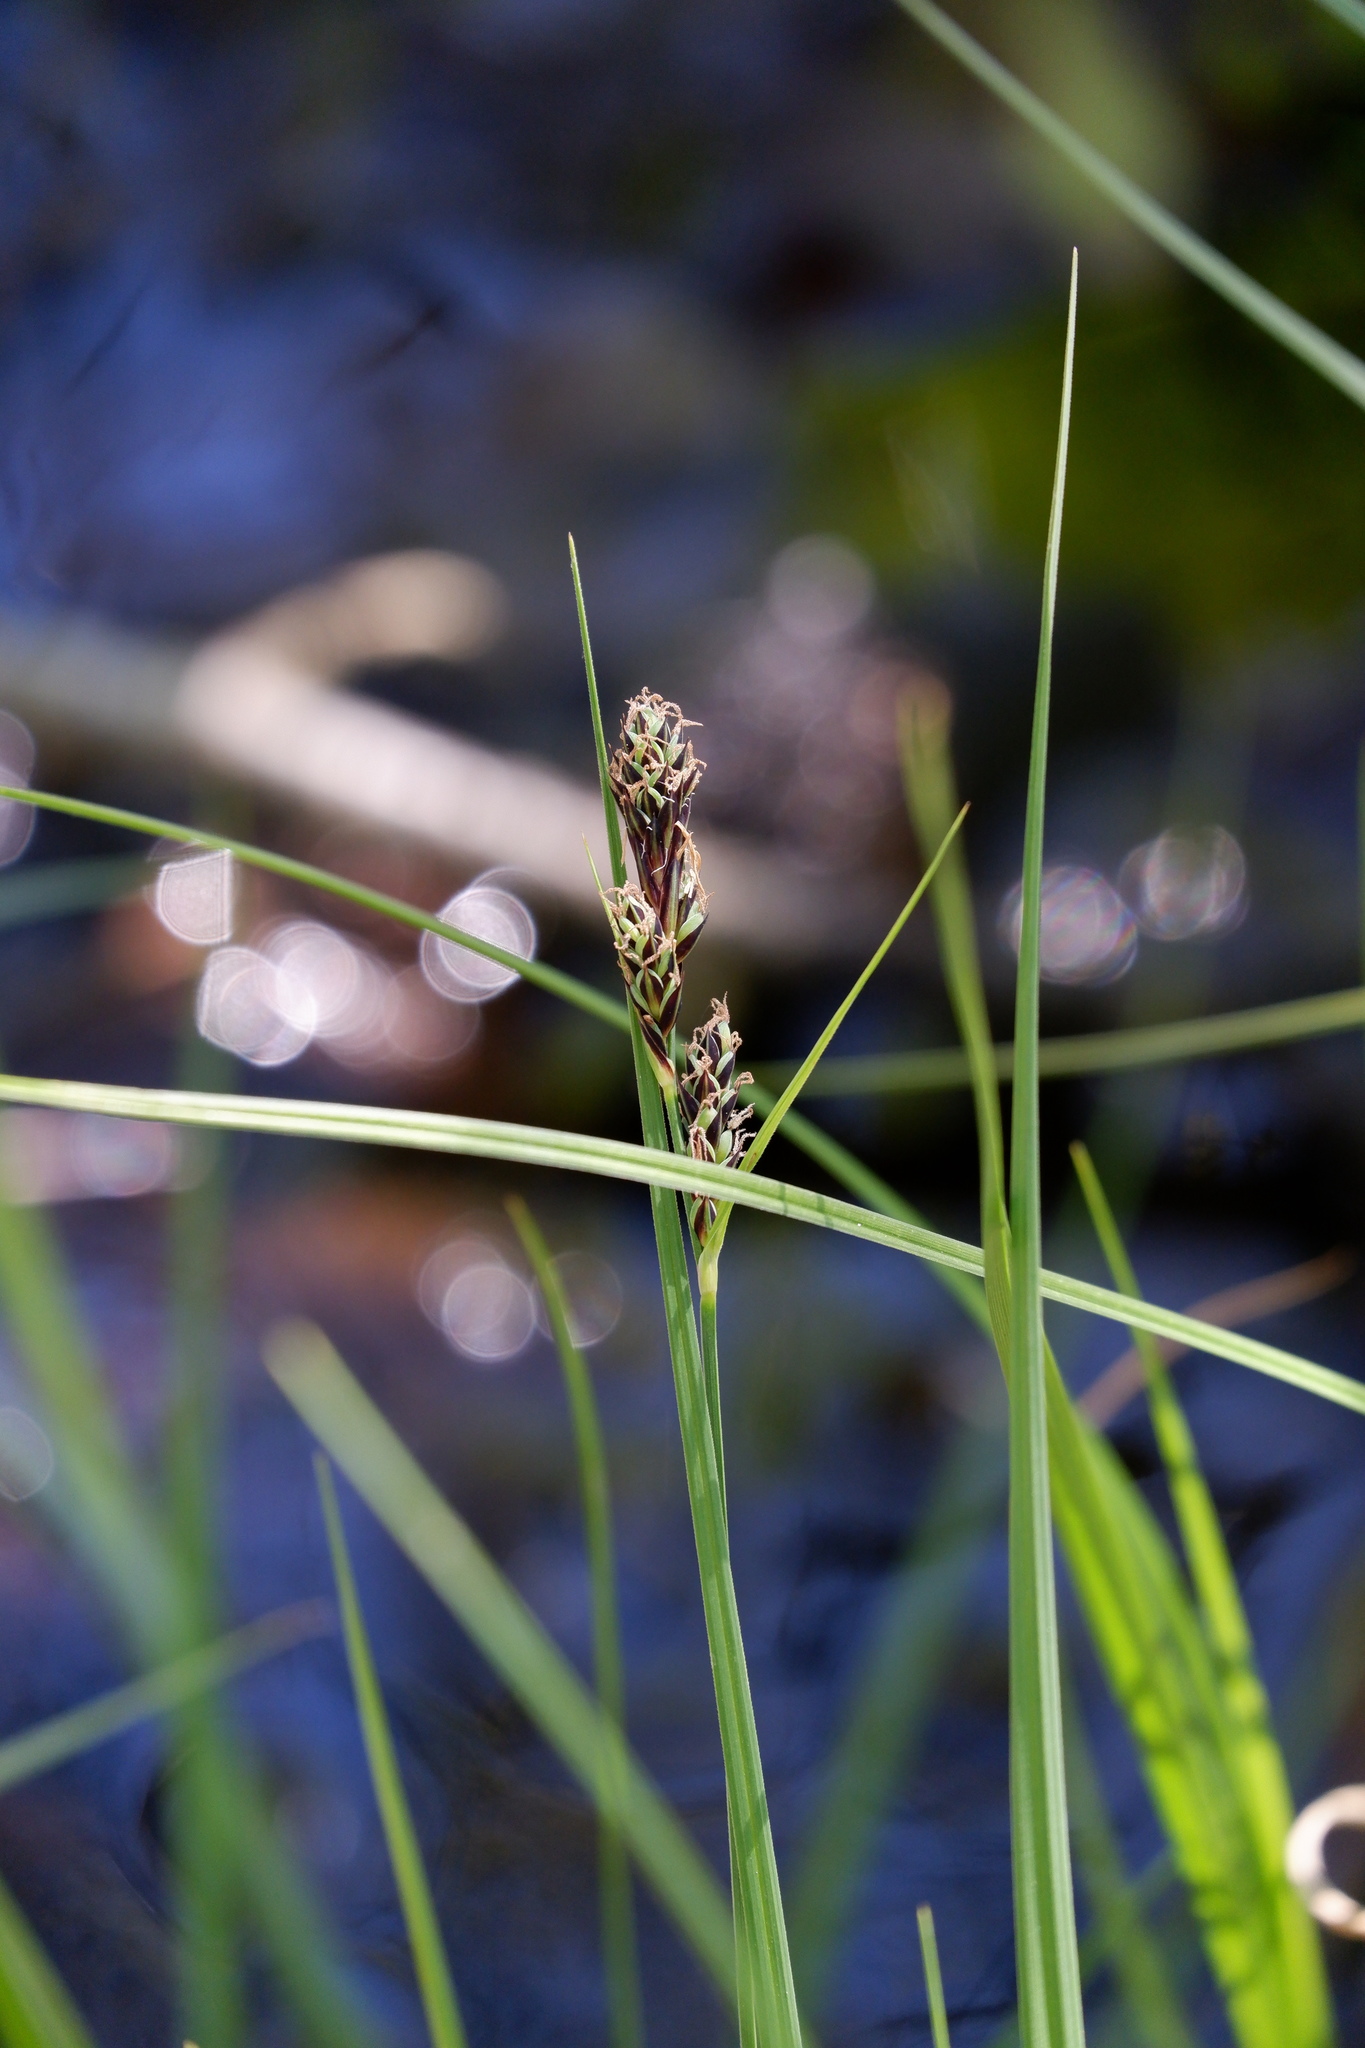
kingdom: Plantae
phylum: Tracheophyta
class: Liliopsida
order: Poales
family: Cyperaceae
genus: Carex
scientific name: Carex buxbaumii
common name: Club sedge
